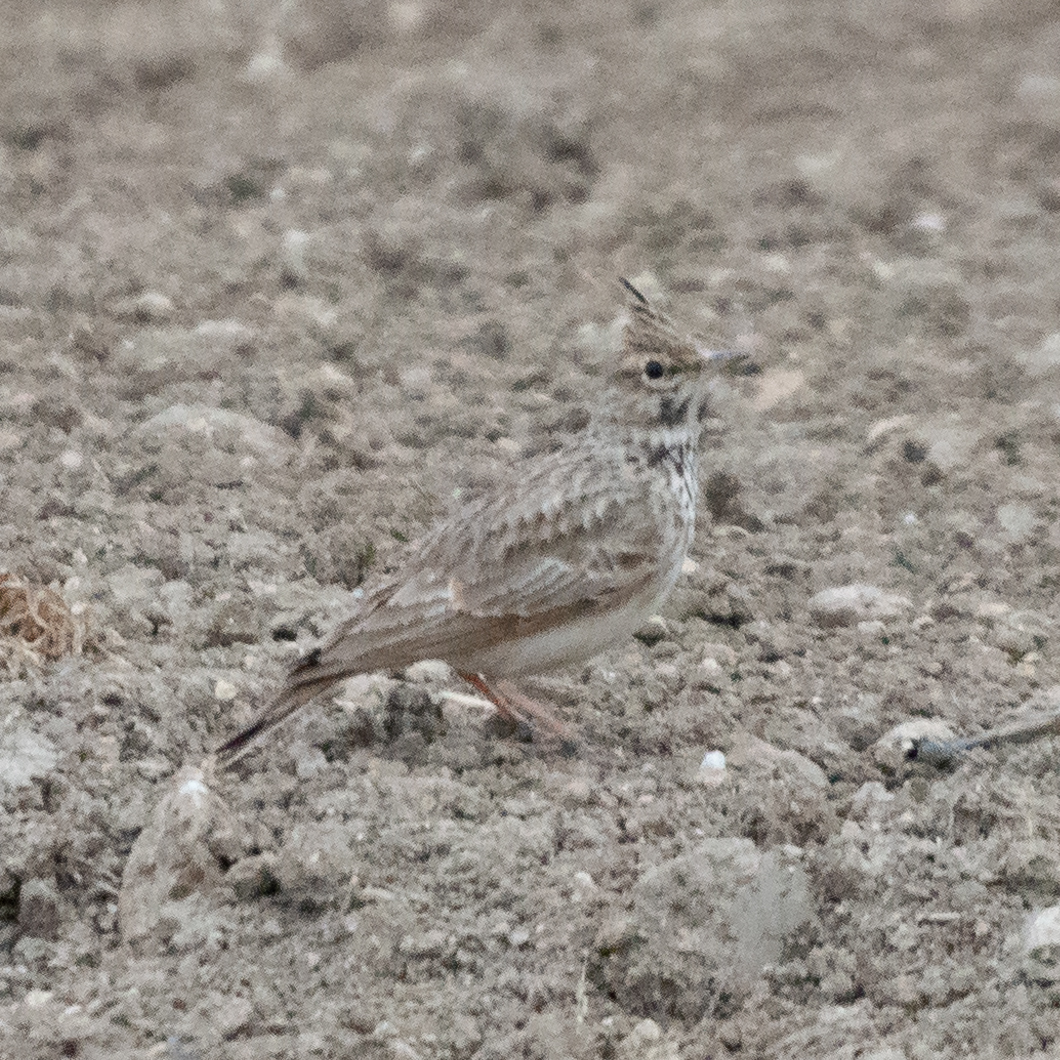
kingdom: Animalia
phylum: Chordata
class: Aves
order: Passeriformes
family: Alaudidae
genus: Galerida
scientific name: Galerida cristata
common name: Crested lark
